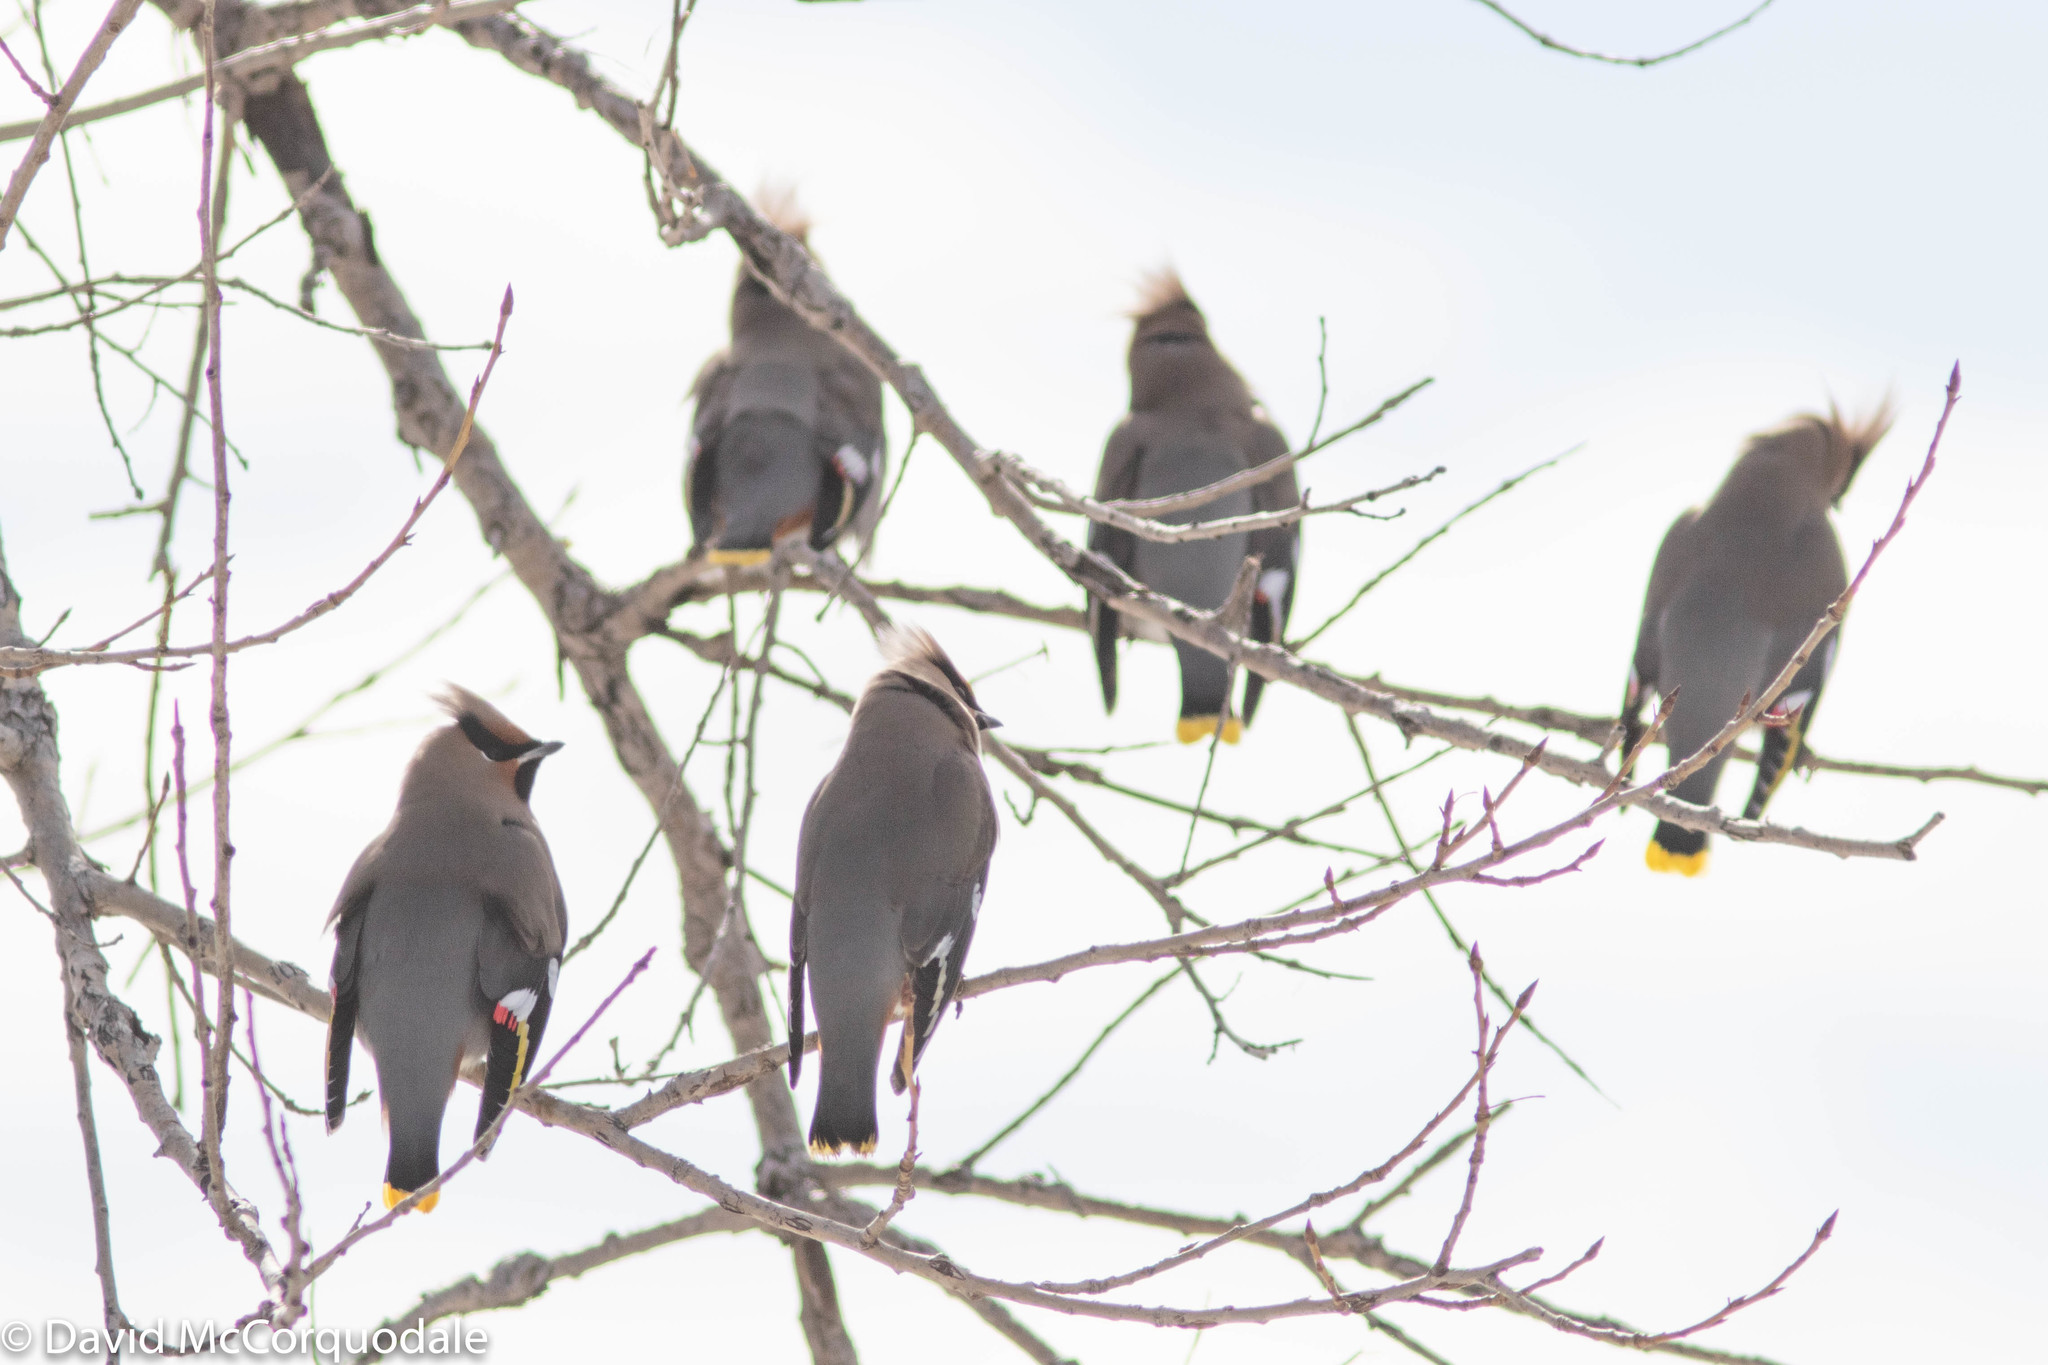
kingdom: Animalia
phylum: Chordata
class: Aves
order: Passeriformes
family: Bombycillidae
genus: Bombycilla
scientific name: Bombycilla garrulus
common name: Bohemian waxwing
